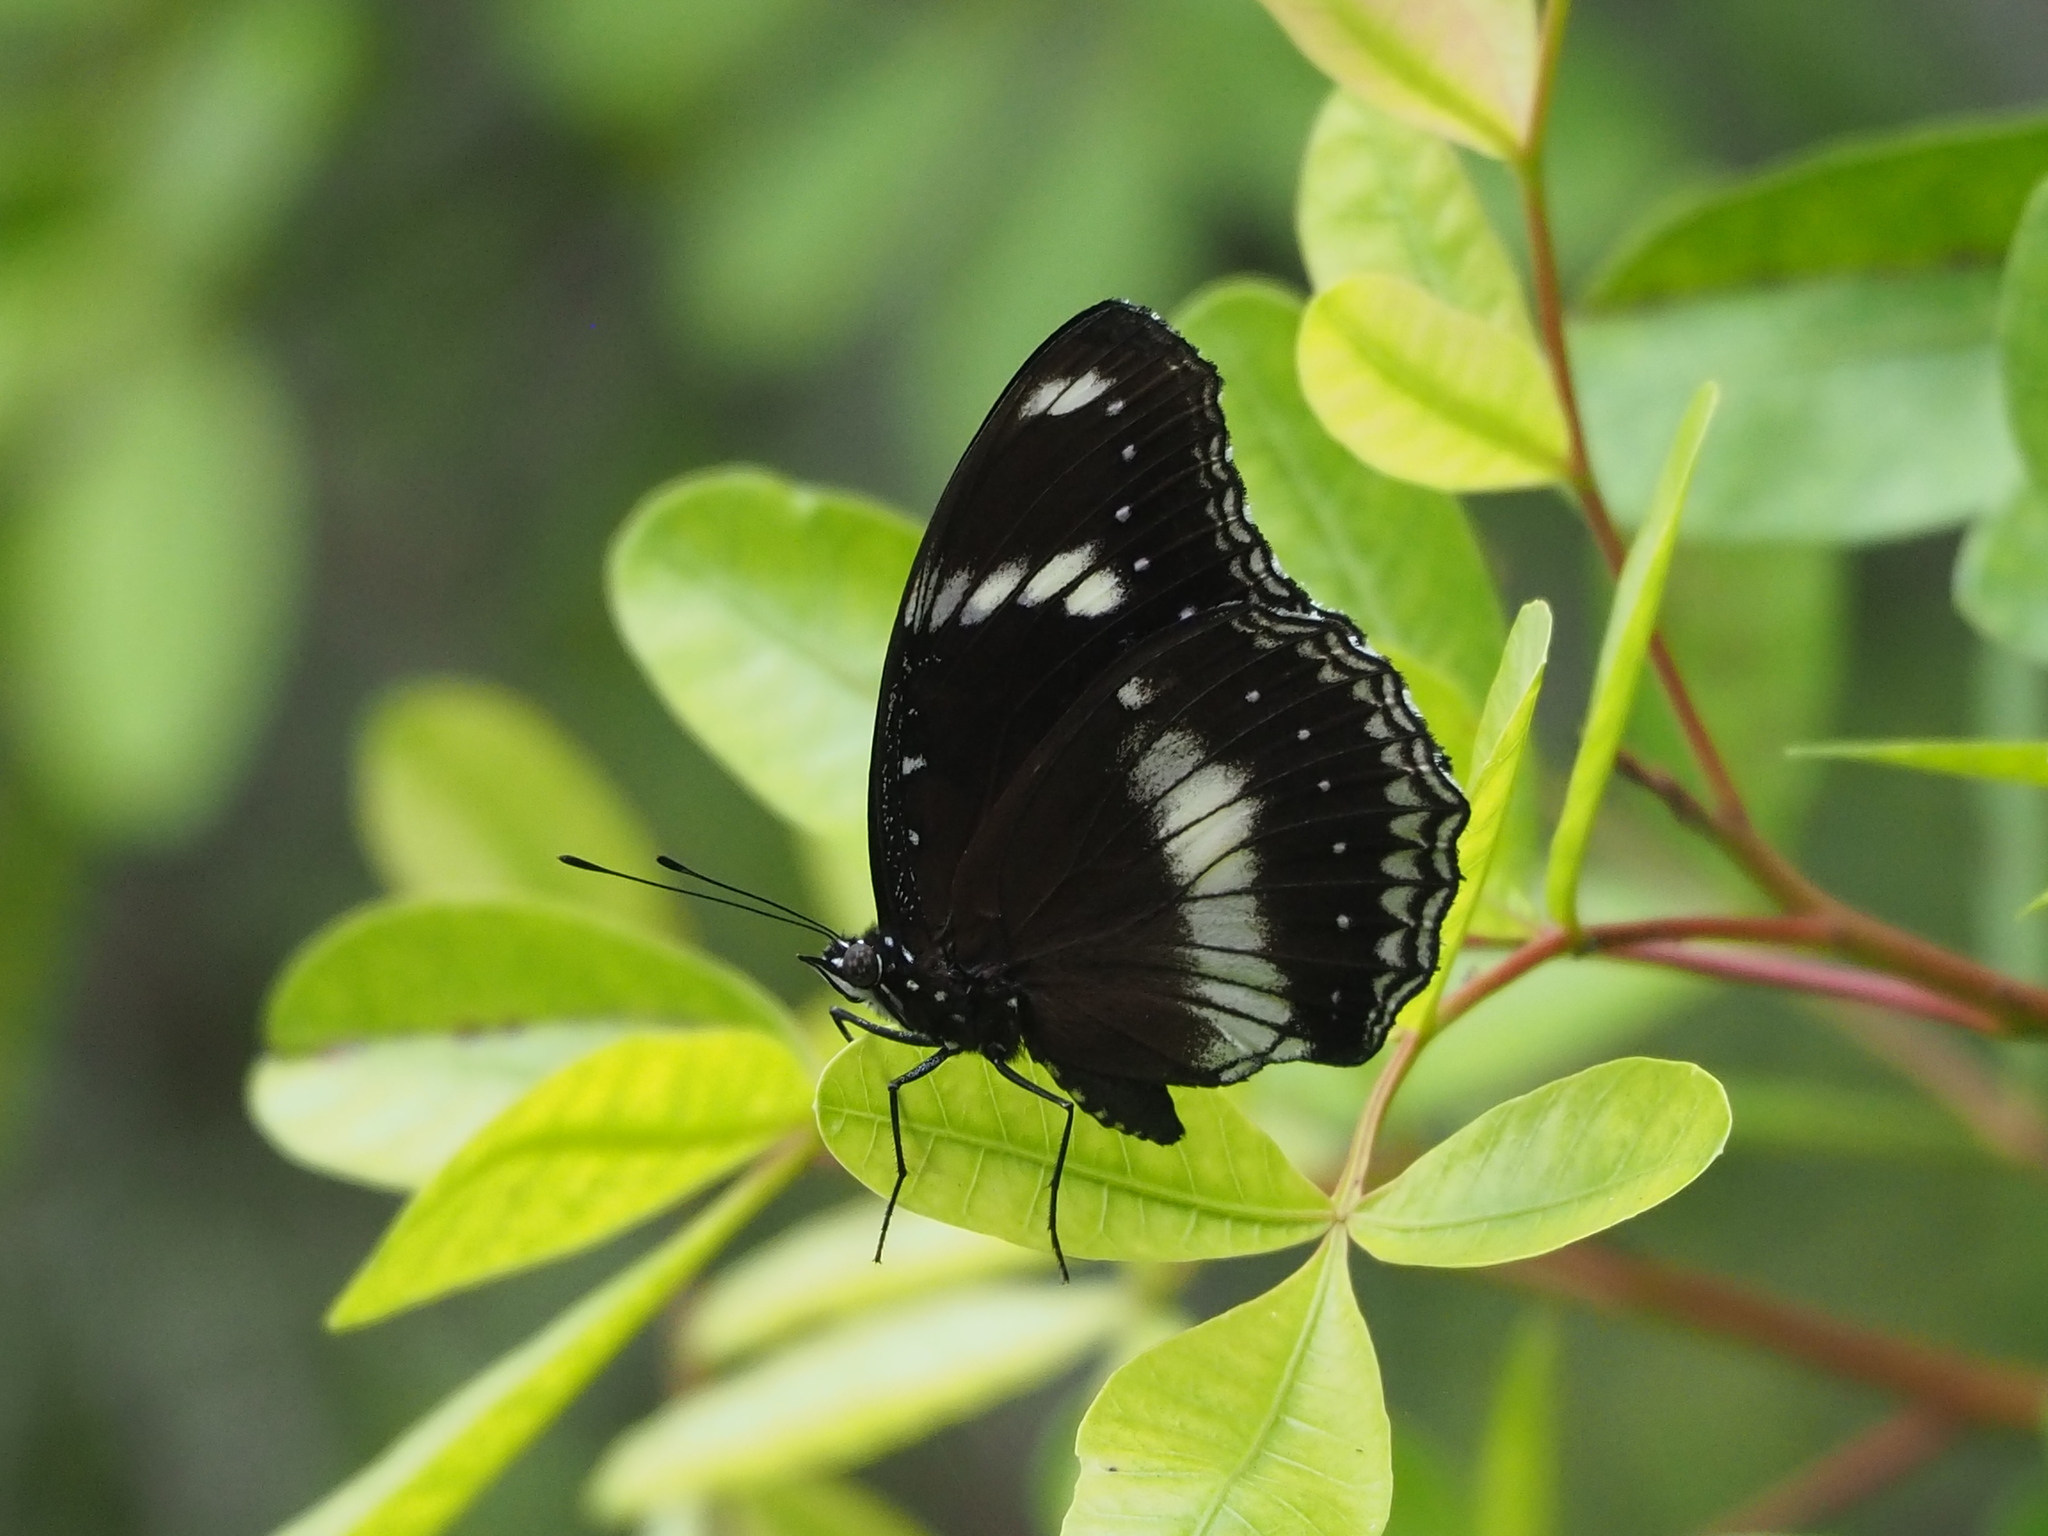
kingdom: Animalia
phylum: Arthropoda
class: Insecta
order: Lepidoptera
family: Nymphalidae
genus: Hypolimnas
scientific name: Hypolimnas bolina
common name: Great eggfly
